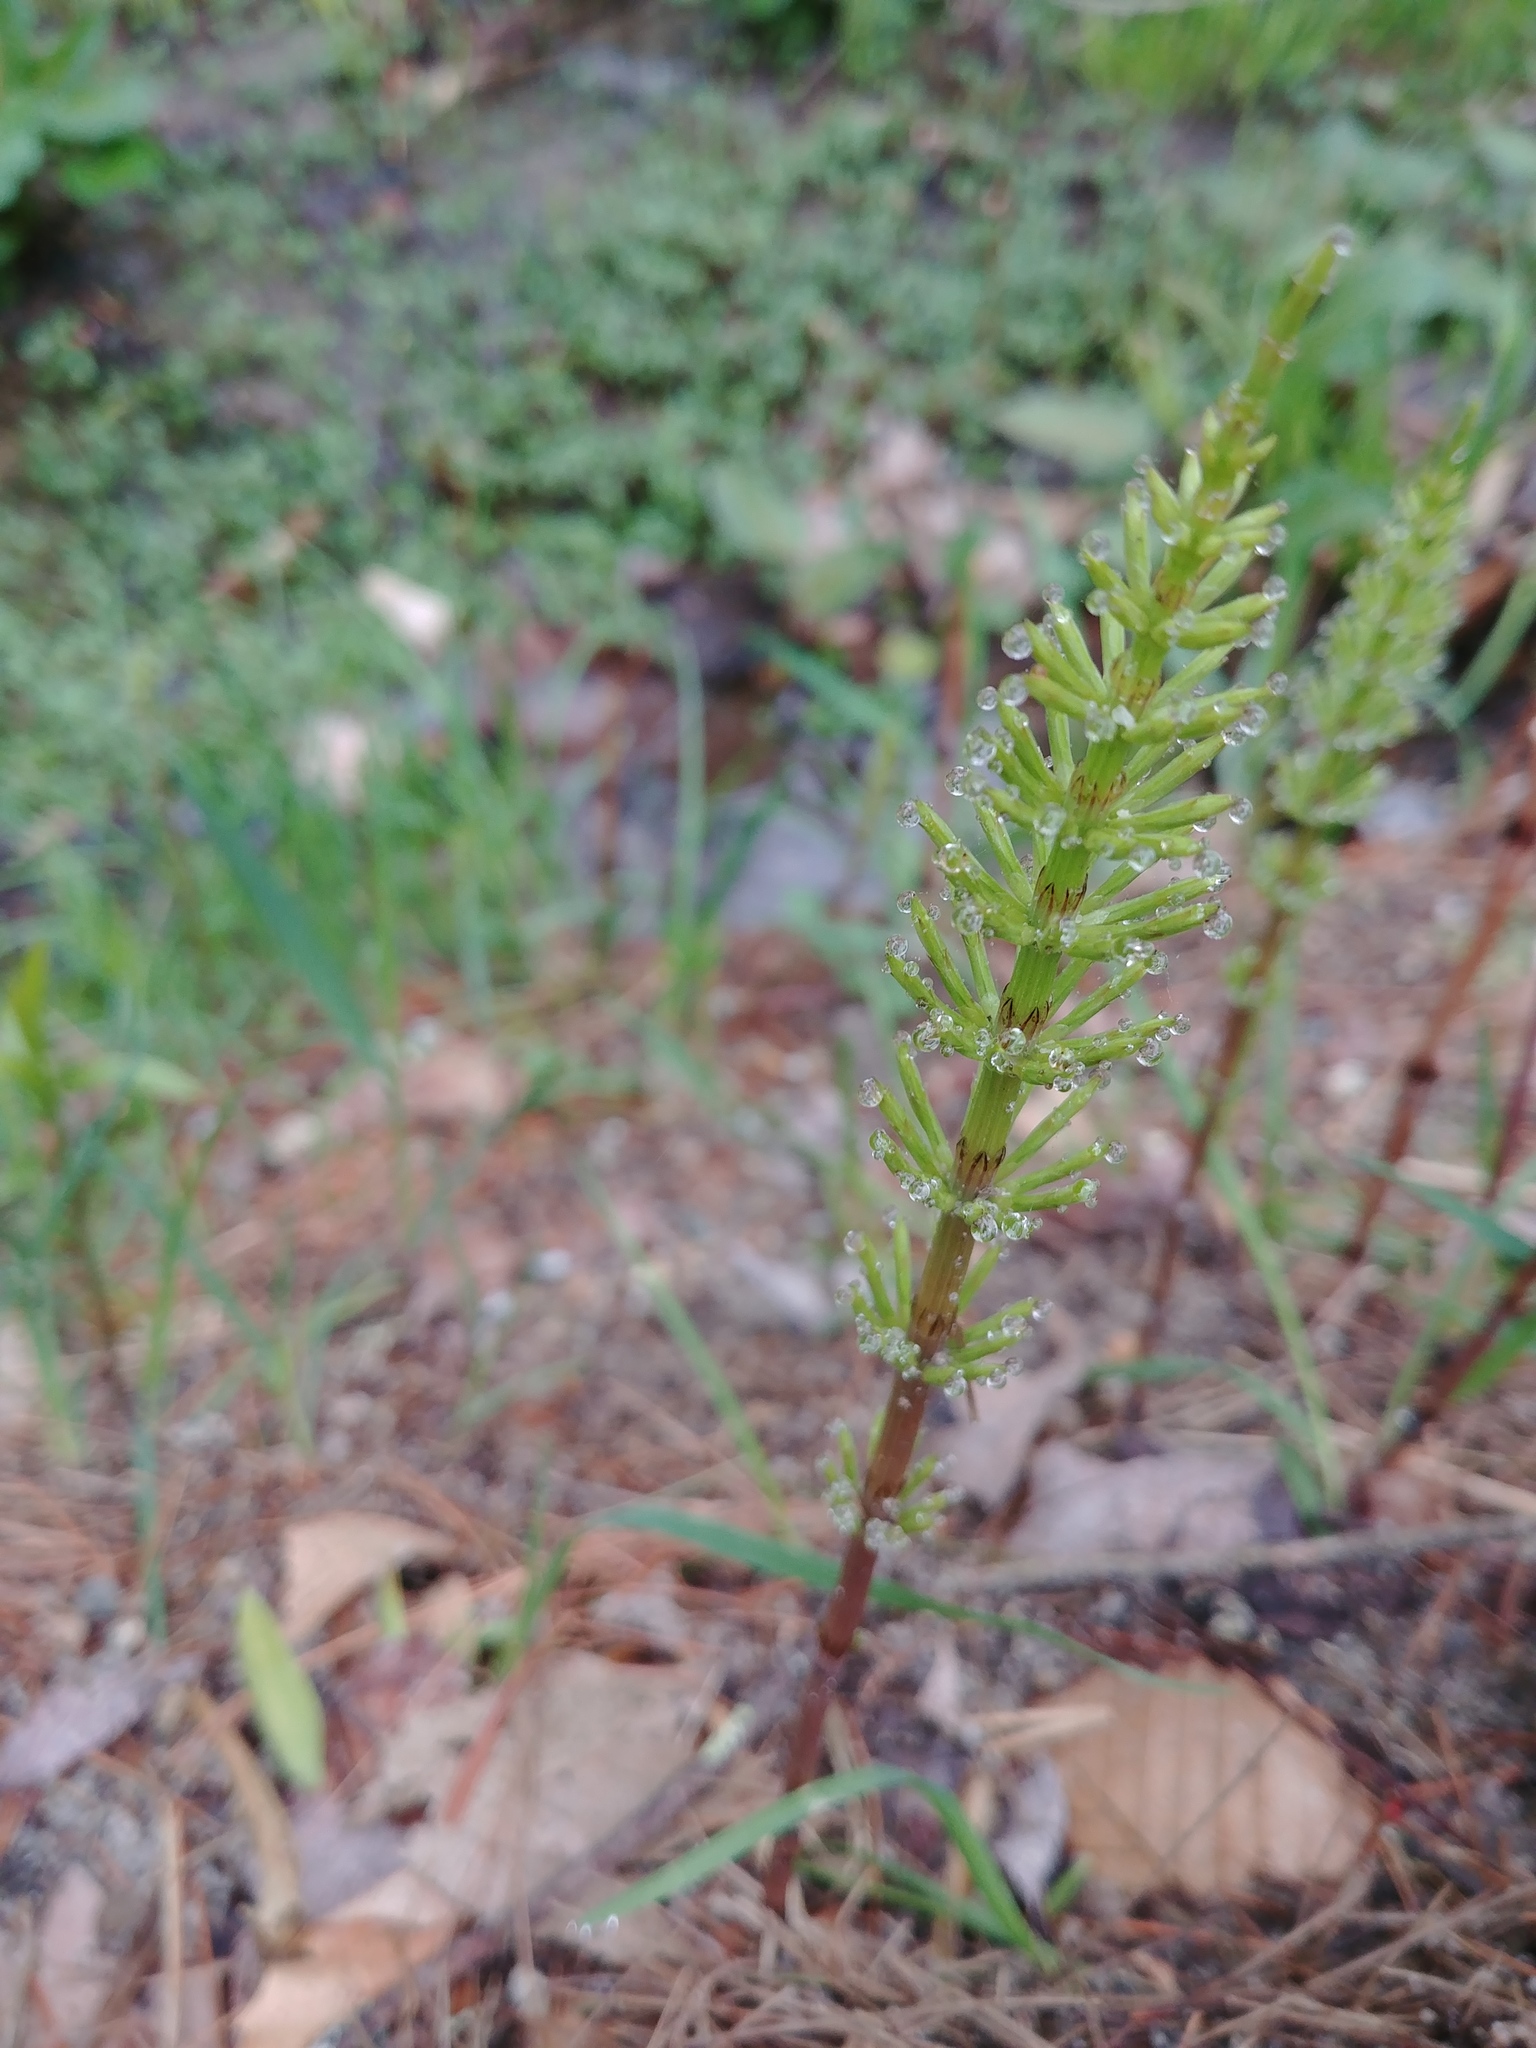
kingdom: Plantae
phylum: Tracheophyta
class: Polypodiopsida
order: Equisetales
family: Equisetaceae
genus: Equisetum
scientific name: Equisetum arvense
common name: Field horsetail
